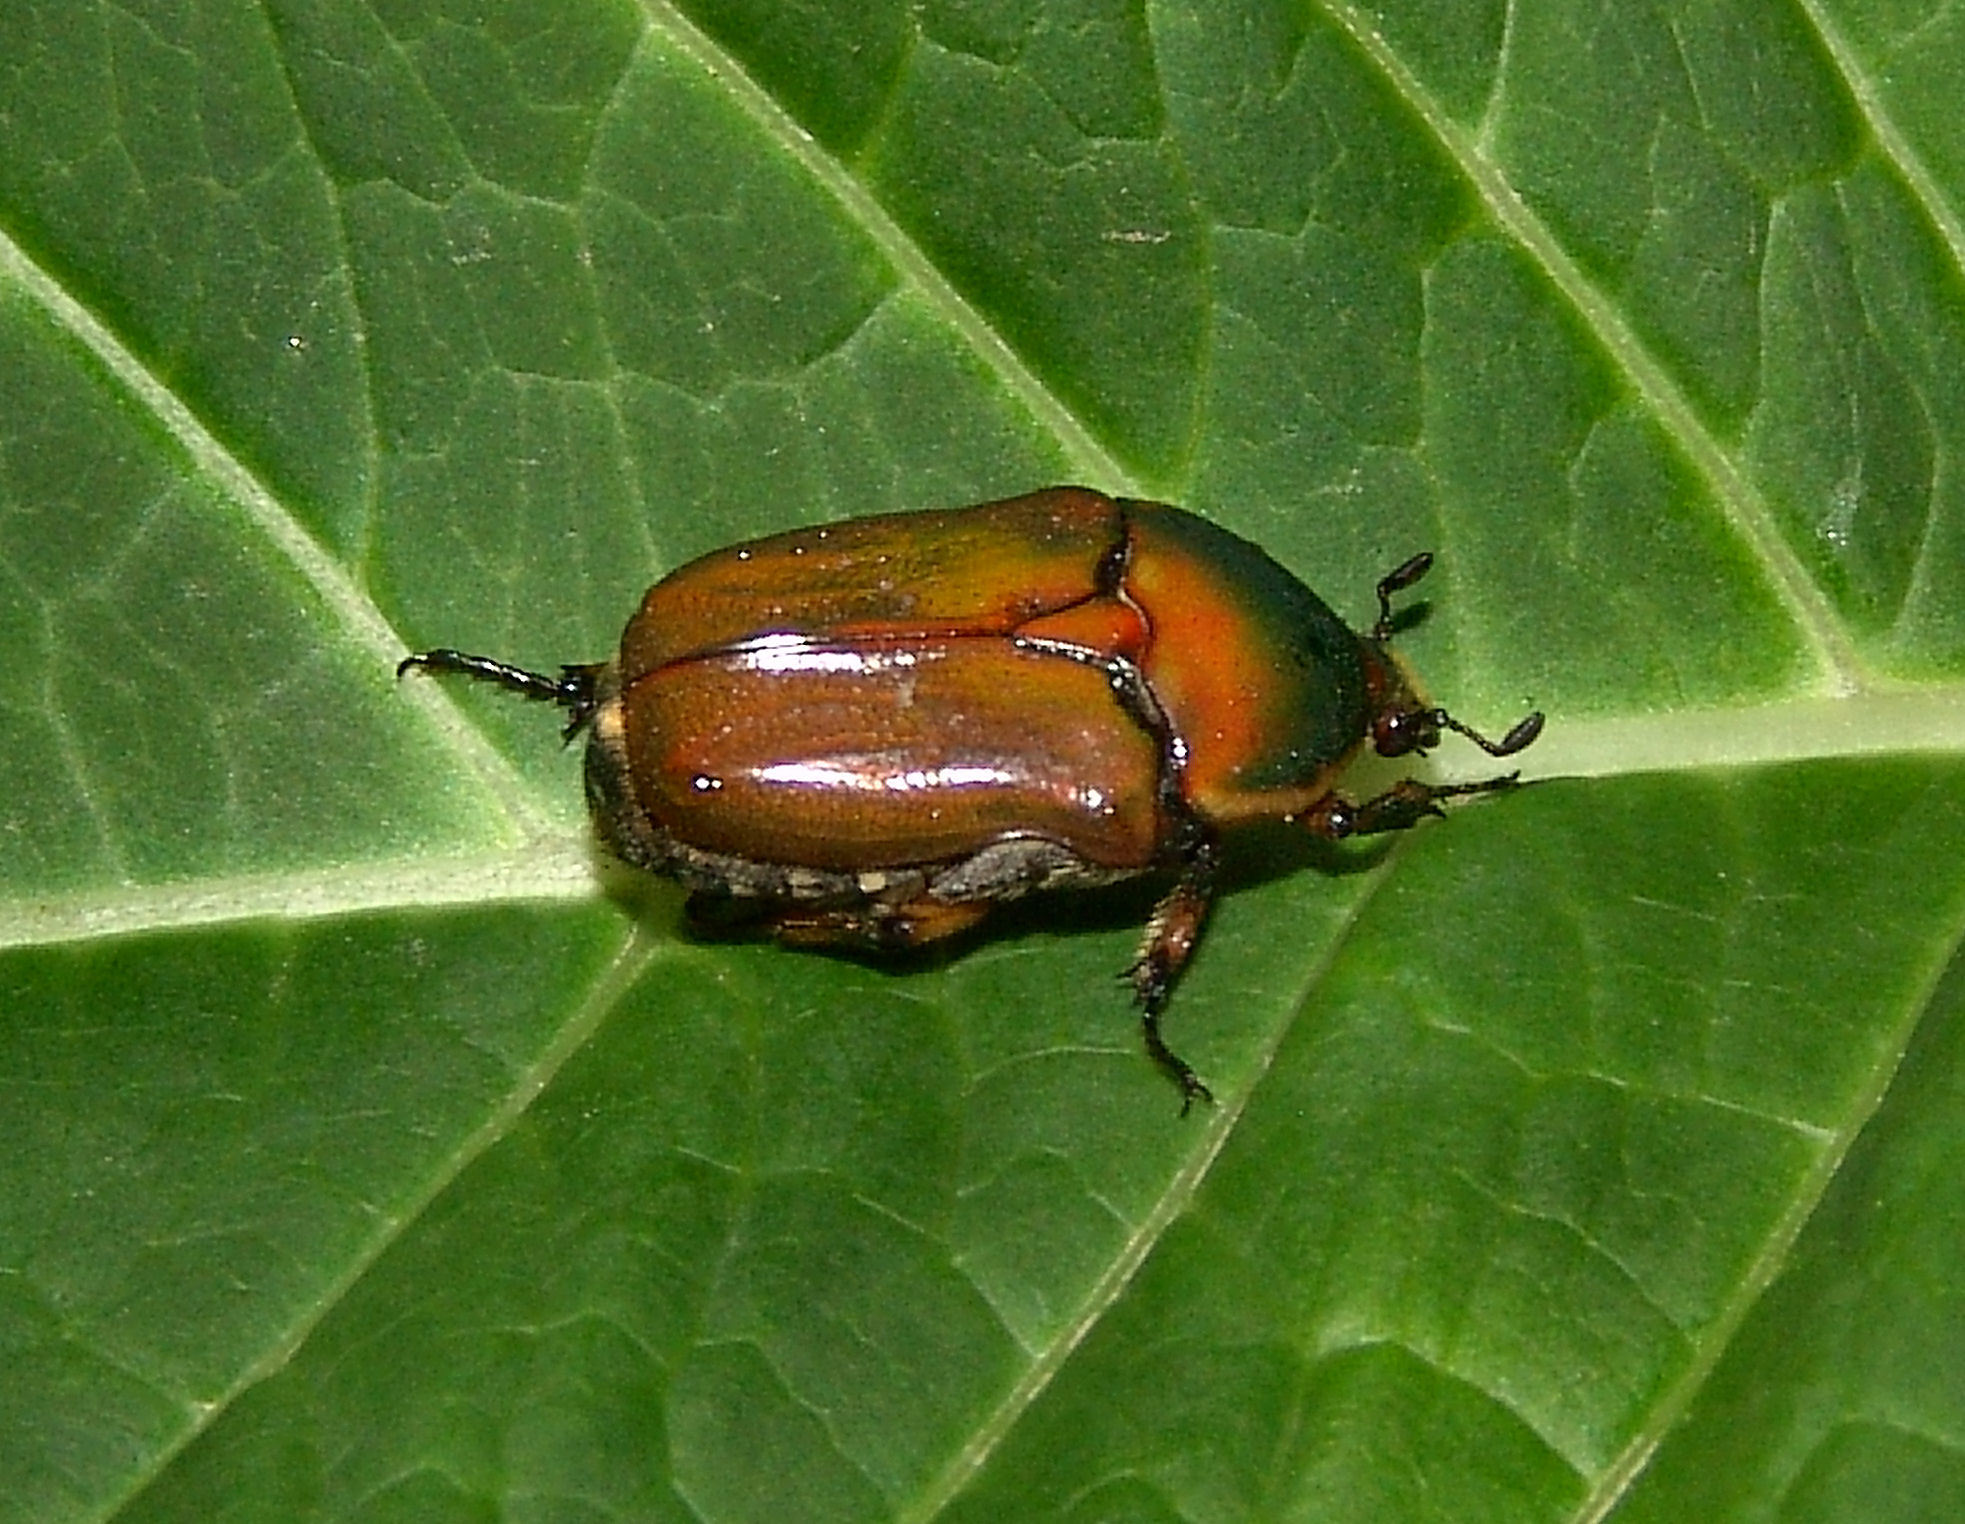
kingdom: Animalia
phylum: Arthropoda
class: Insecta
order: Coleoptera
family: Scarabaeidae
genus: Euphoria
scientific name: Euphoria fulgida
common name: Emerald euphoria
